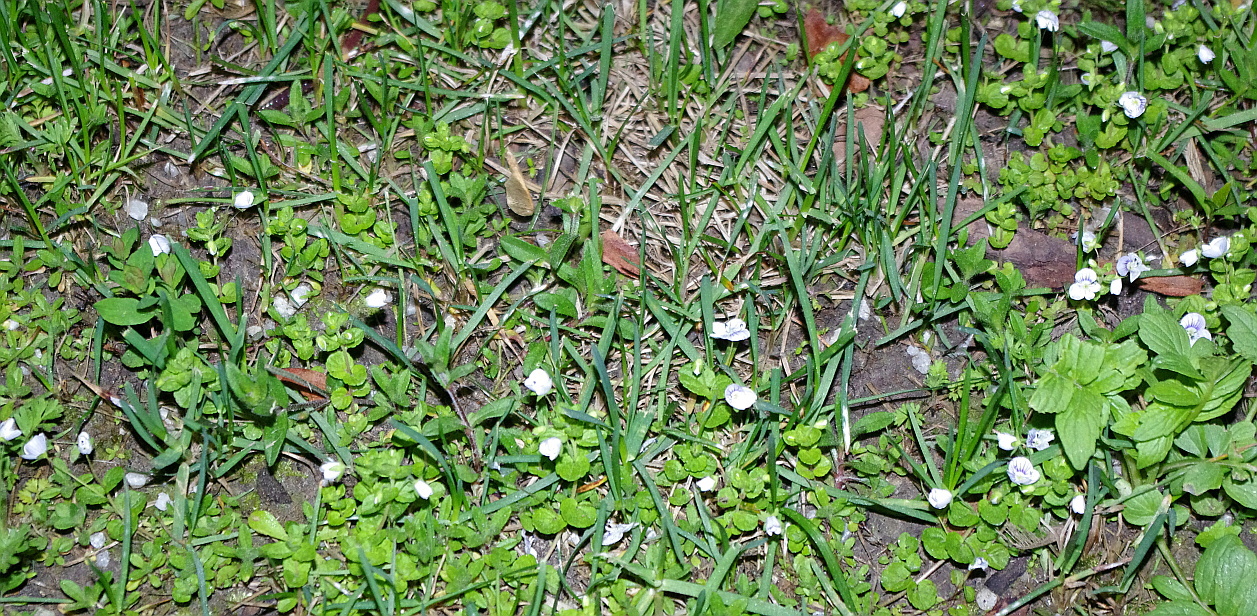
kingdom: Plantae
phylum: Tracheophyta
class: Magnoliopsida
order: Lamiales
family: Plantaginaceae
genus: Veronica
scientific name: Veronica filiformis
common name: Slender speedwell
